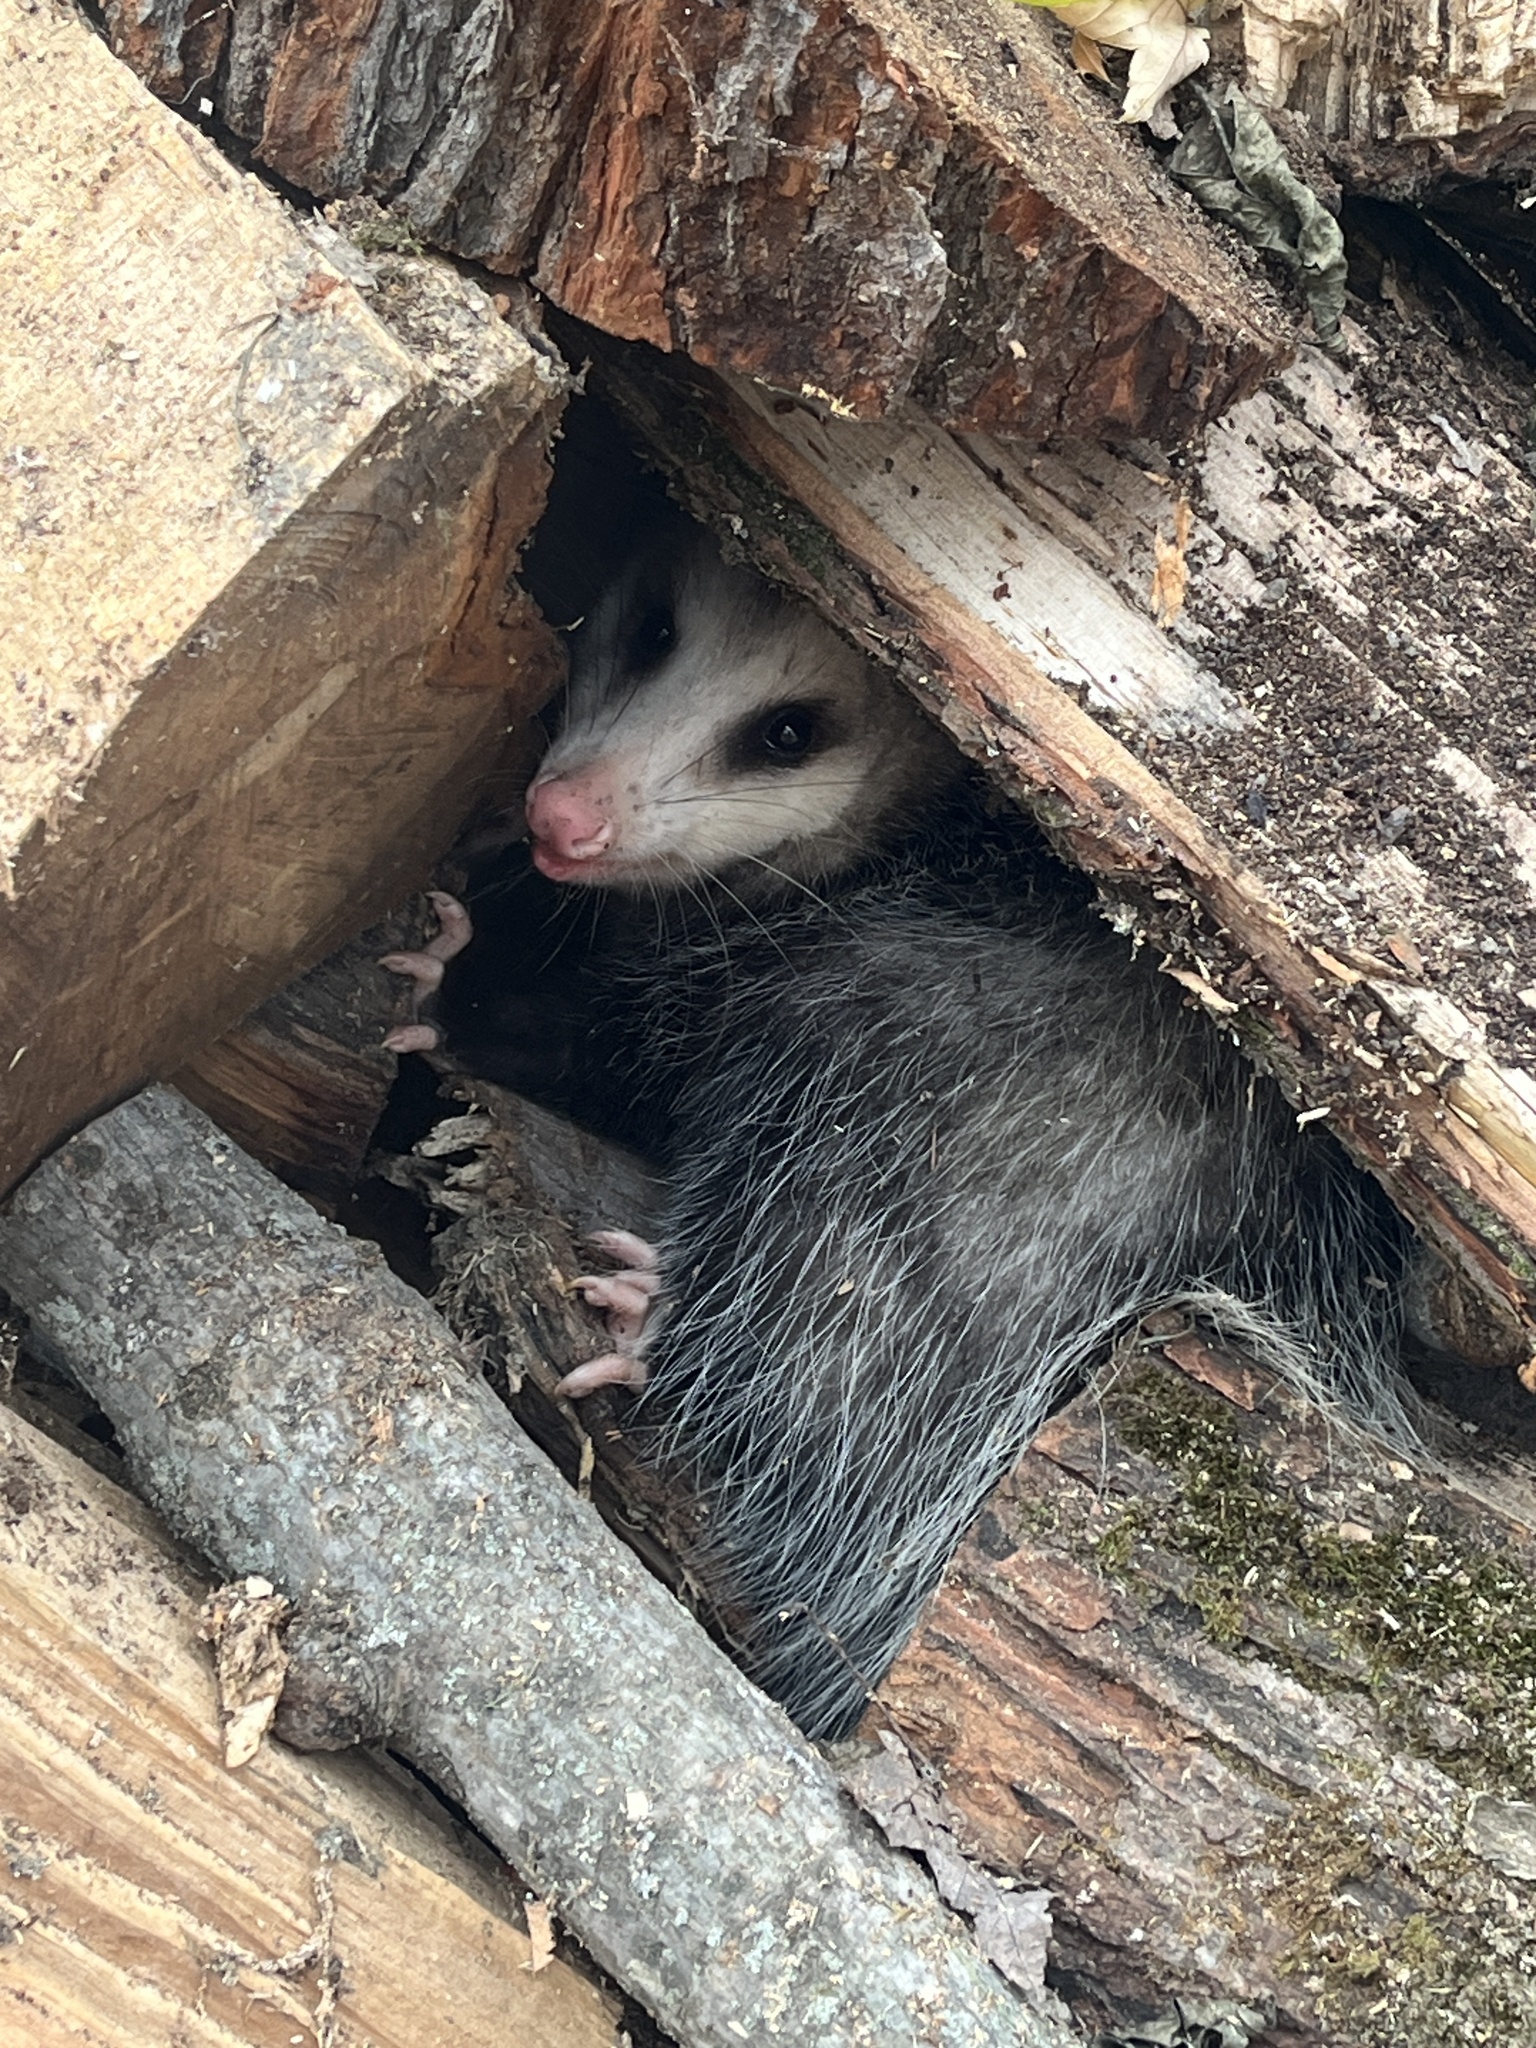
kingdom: Animalia
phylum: Chordata
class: Mammalia
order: Didelphimorphia
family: Didelphidae
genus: Didelphis
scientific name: Didelphis virginiana
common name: Virginia opossum
